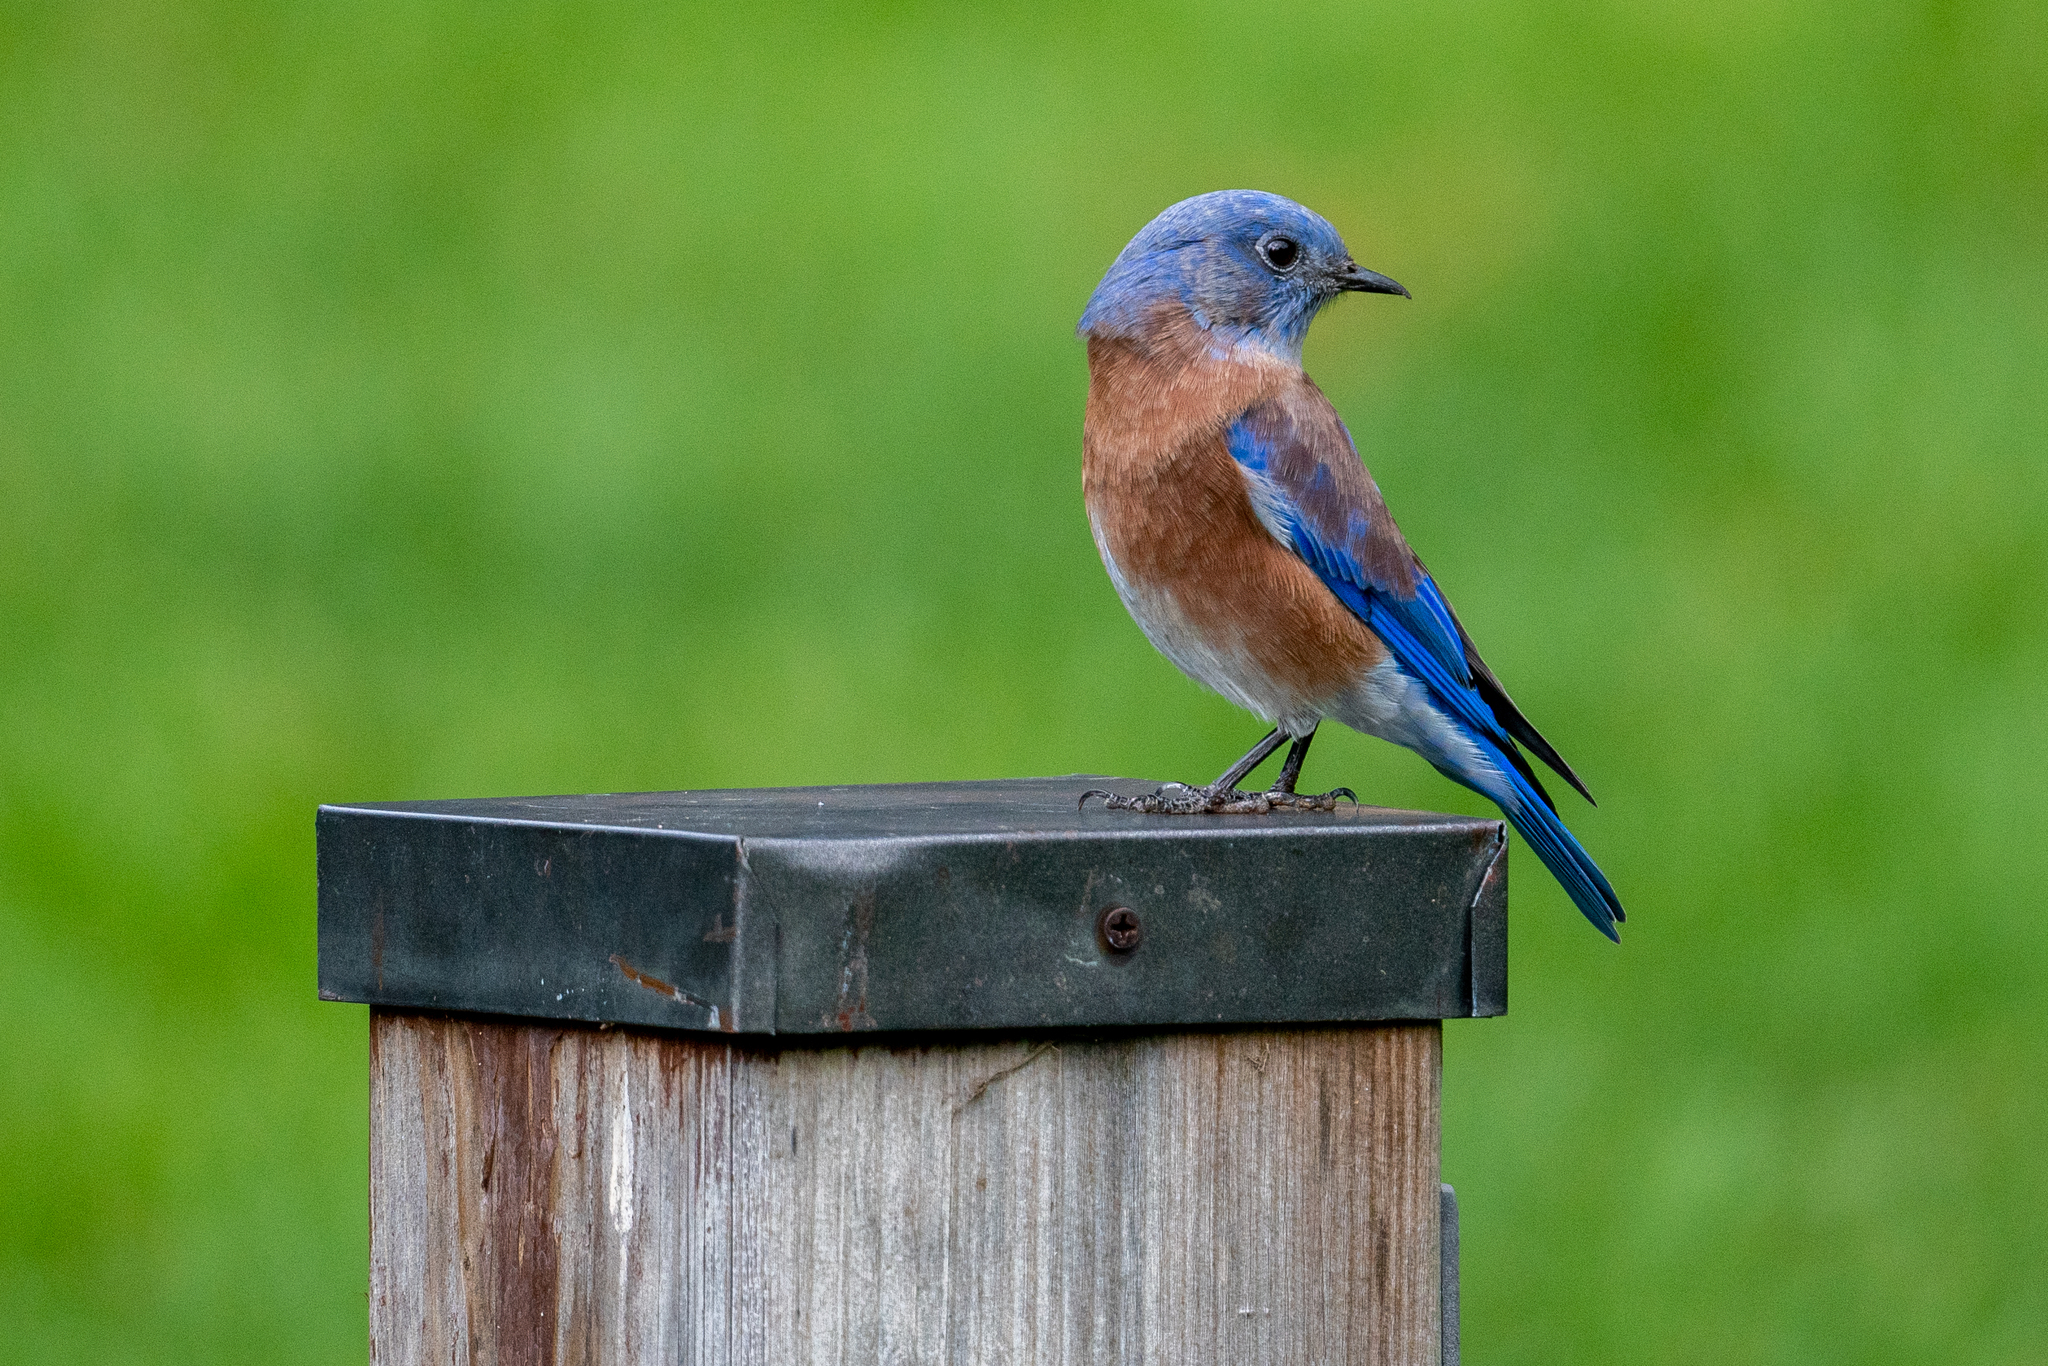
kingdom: Animalia
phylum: Chordata
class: Aves
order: Passeriformes
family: Turdidae
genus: Sialia
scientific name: Sialia mexicana
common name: Western bluebird
